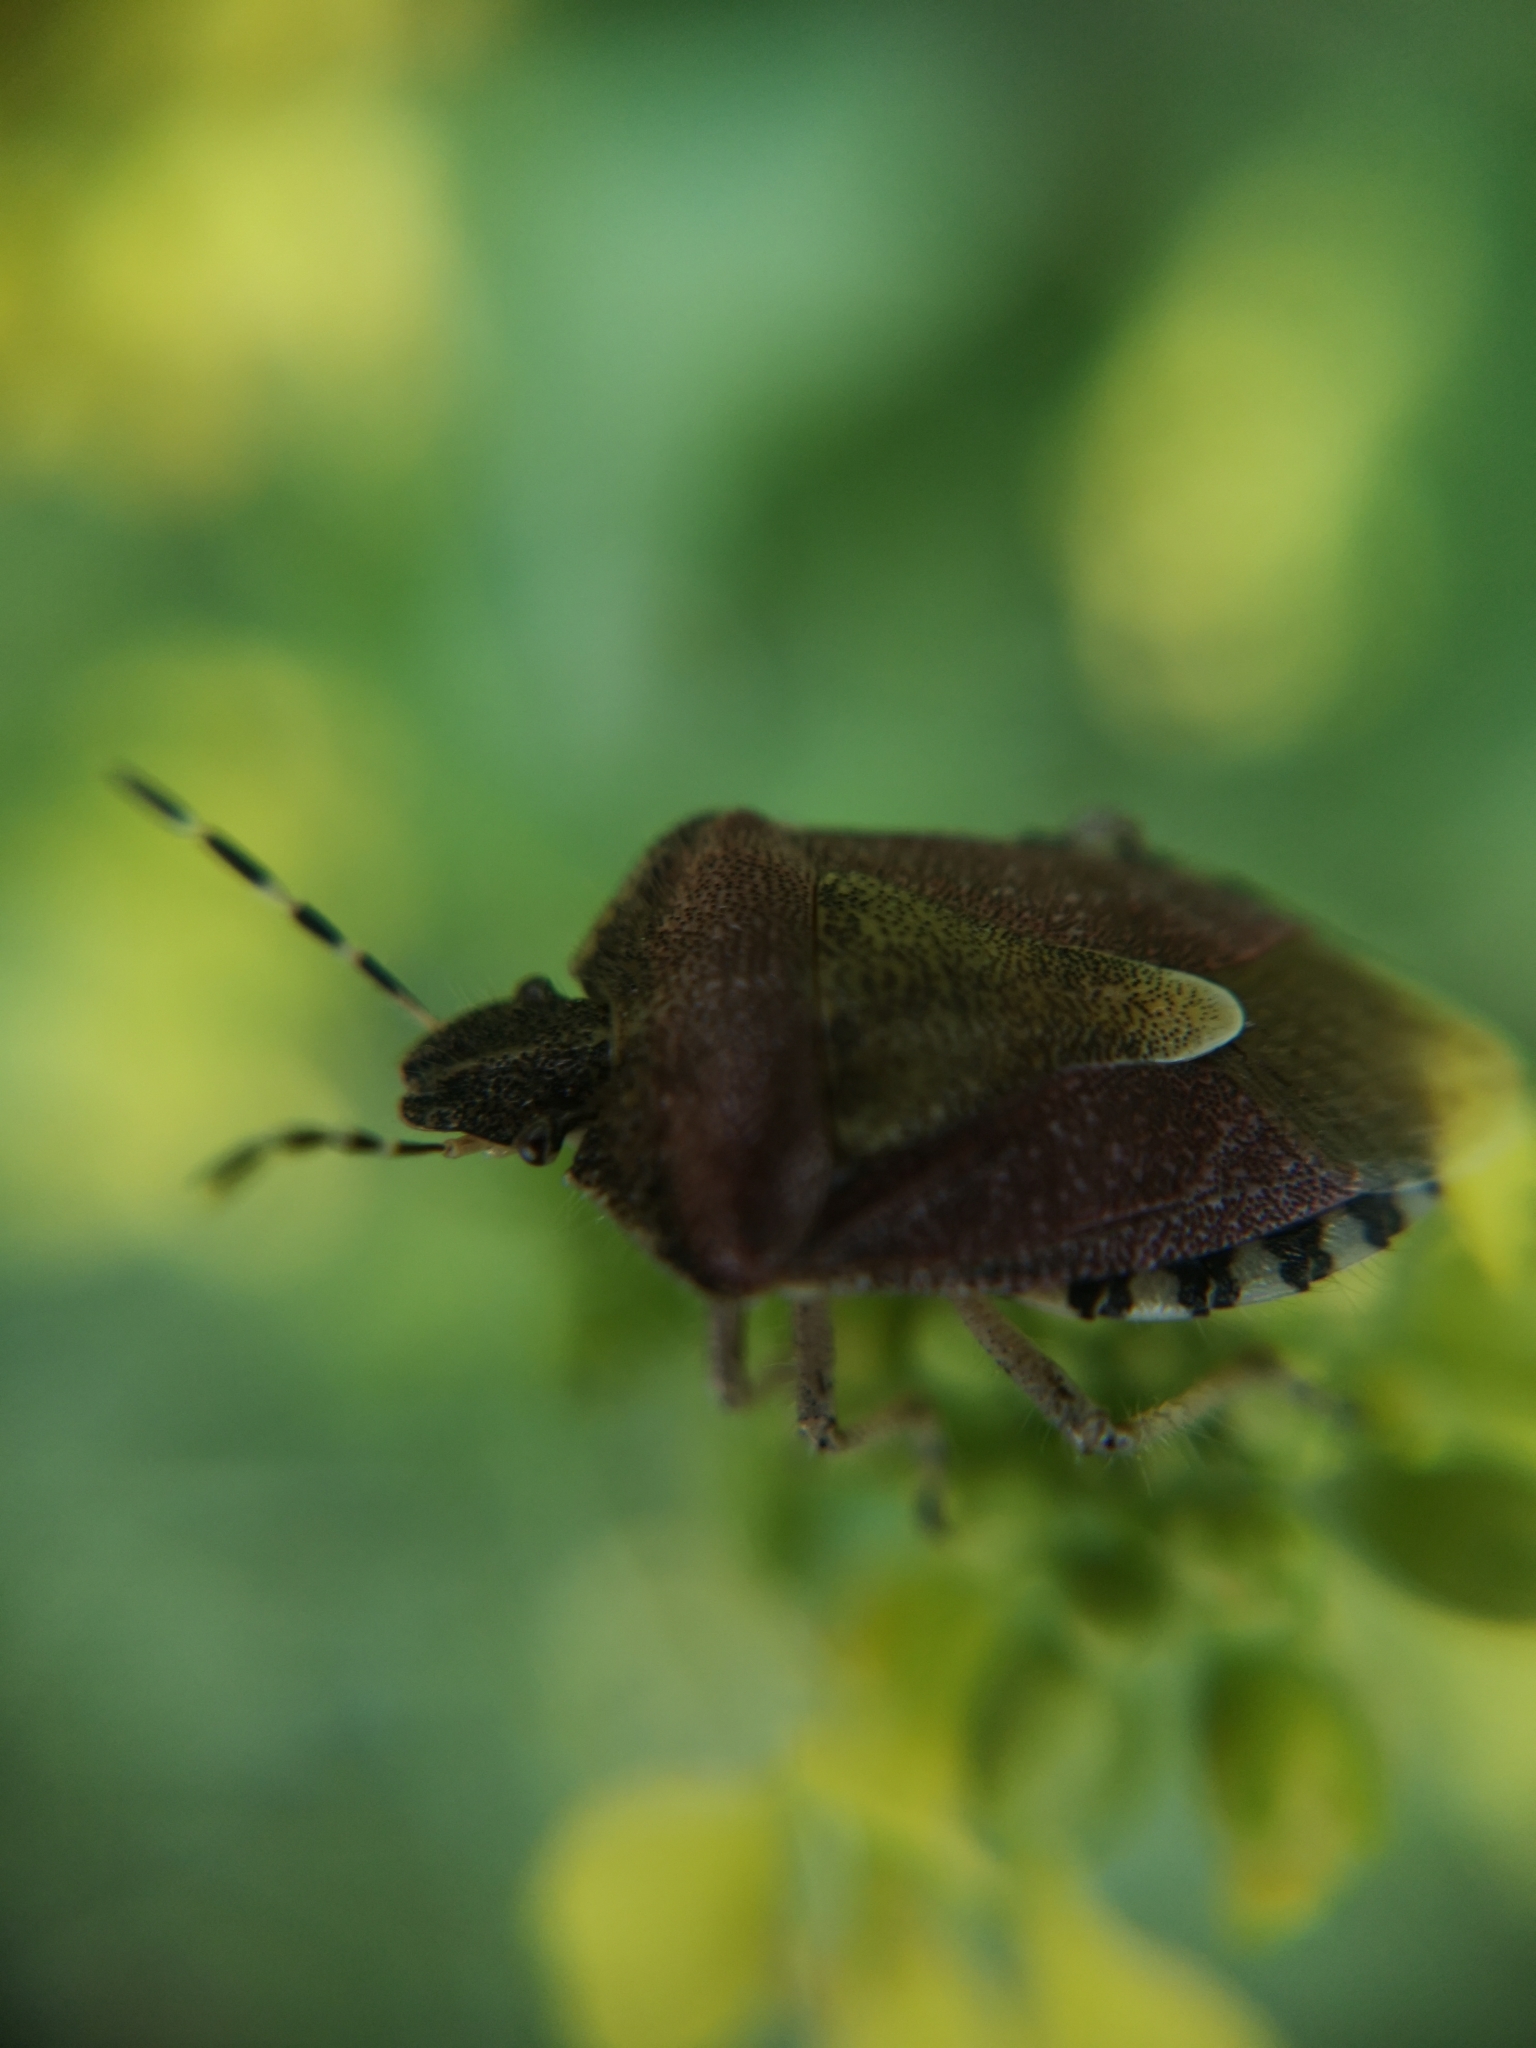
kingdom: Animalia
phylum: Arthropoda
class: Insecta
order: Hemiptera
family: Pentatomidae
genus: Dolycoris
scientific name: Dolycoris baccarum
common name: Sloe bug
